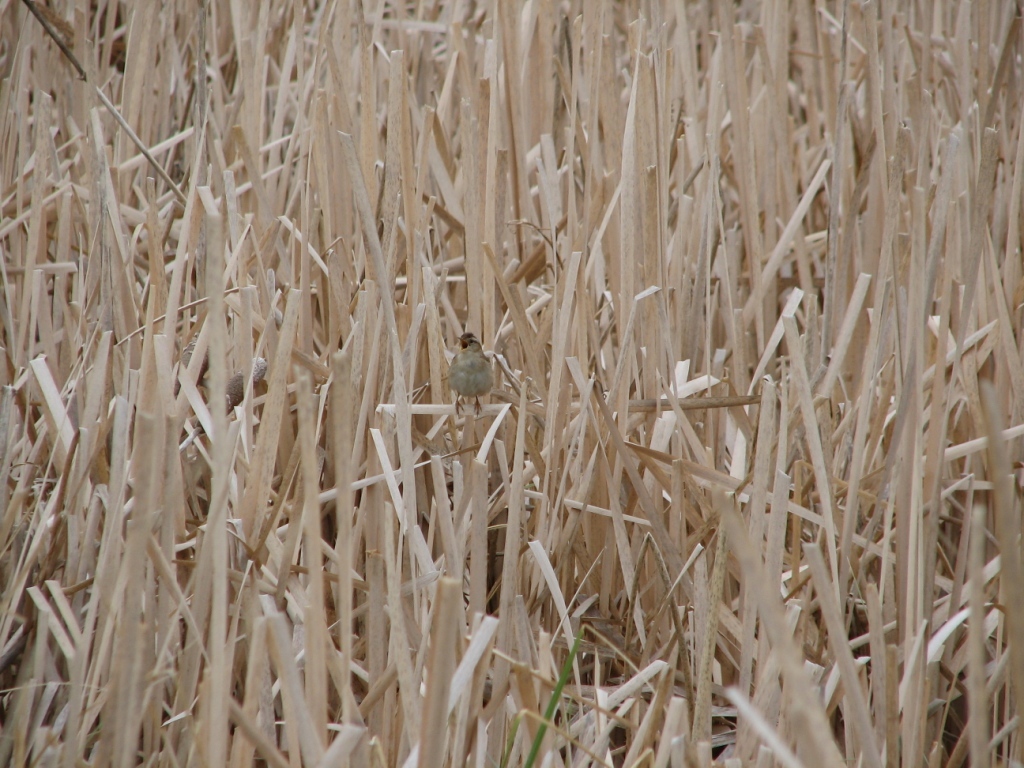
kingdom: Animalia
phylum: Chordata
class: Aves
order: Passeriformes
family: Troglodytidae
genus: Cistothorus
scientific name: Cistothorus palustris
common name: Marsh wren
